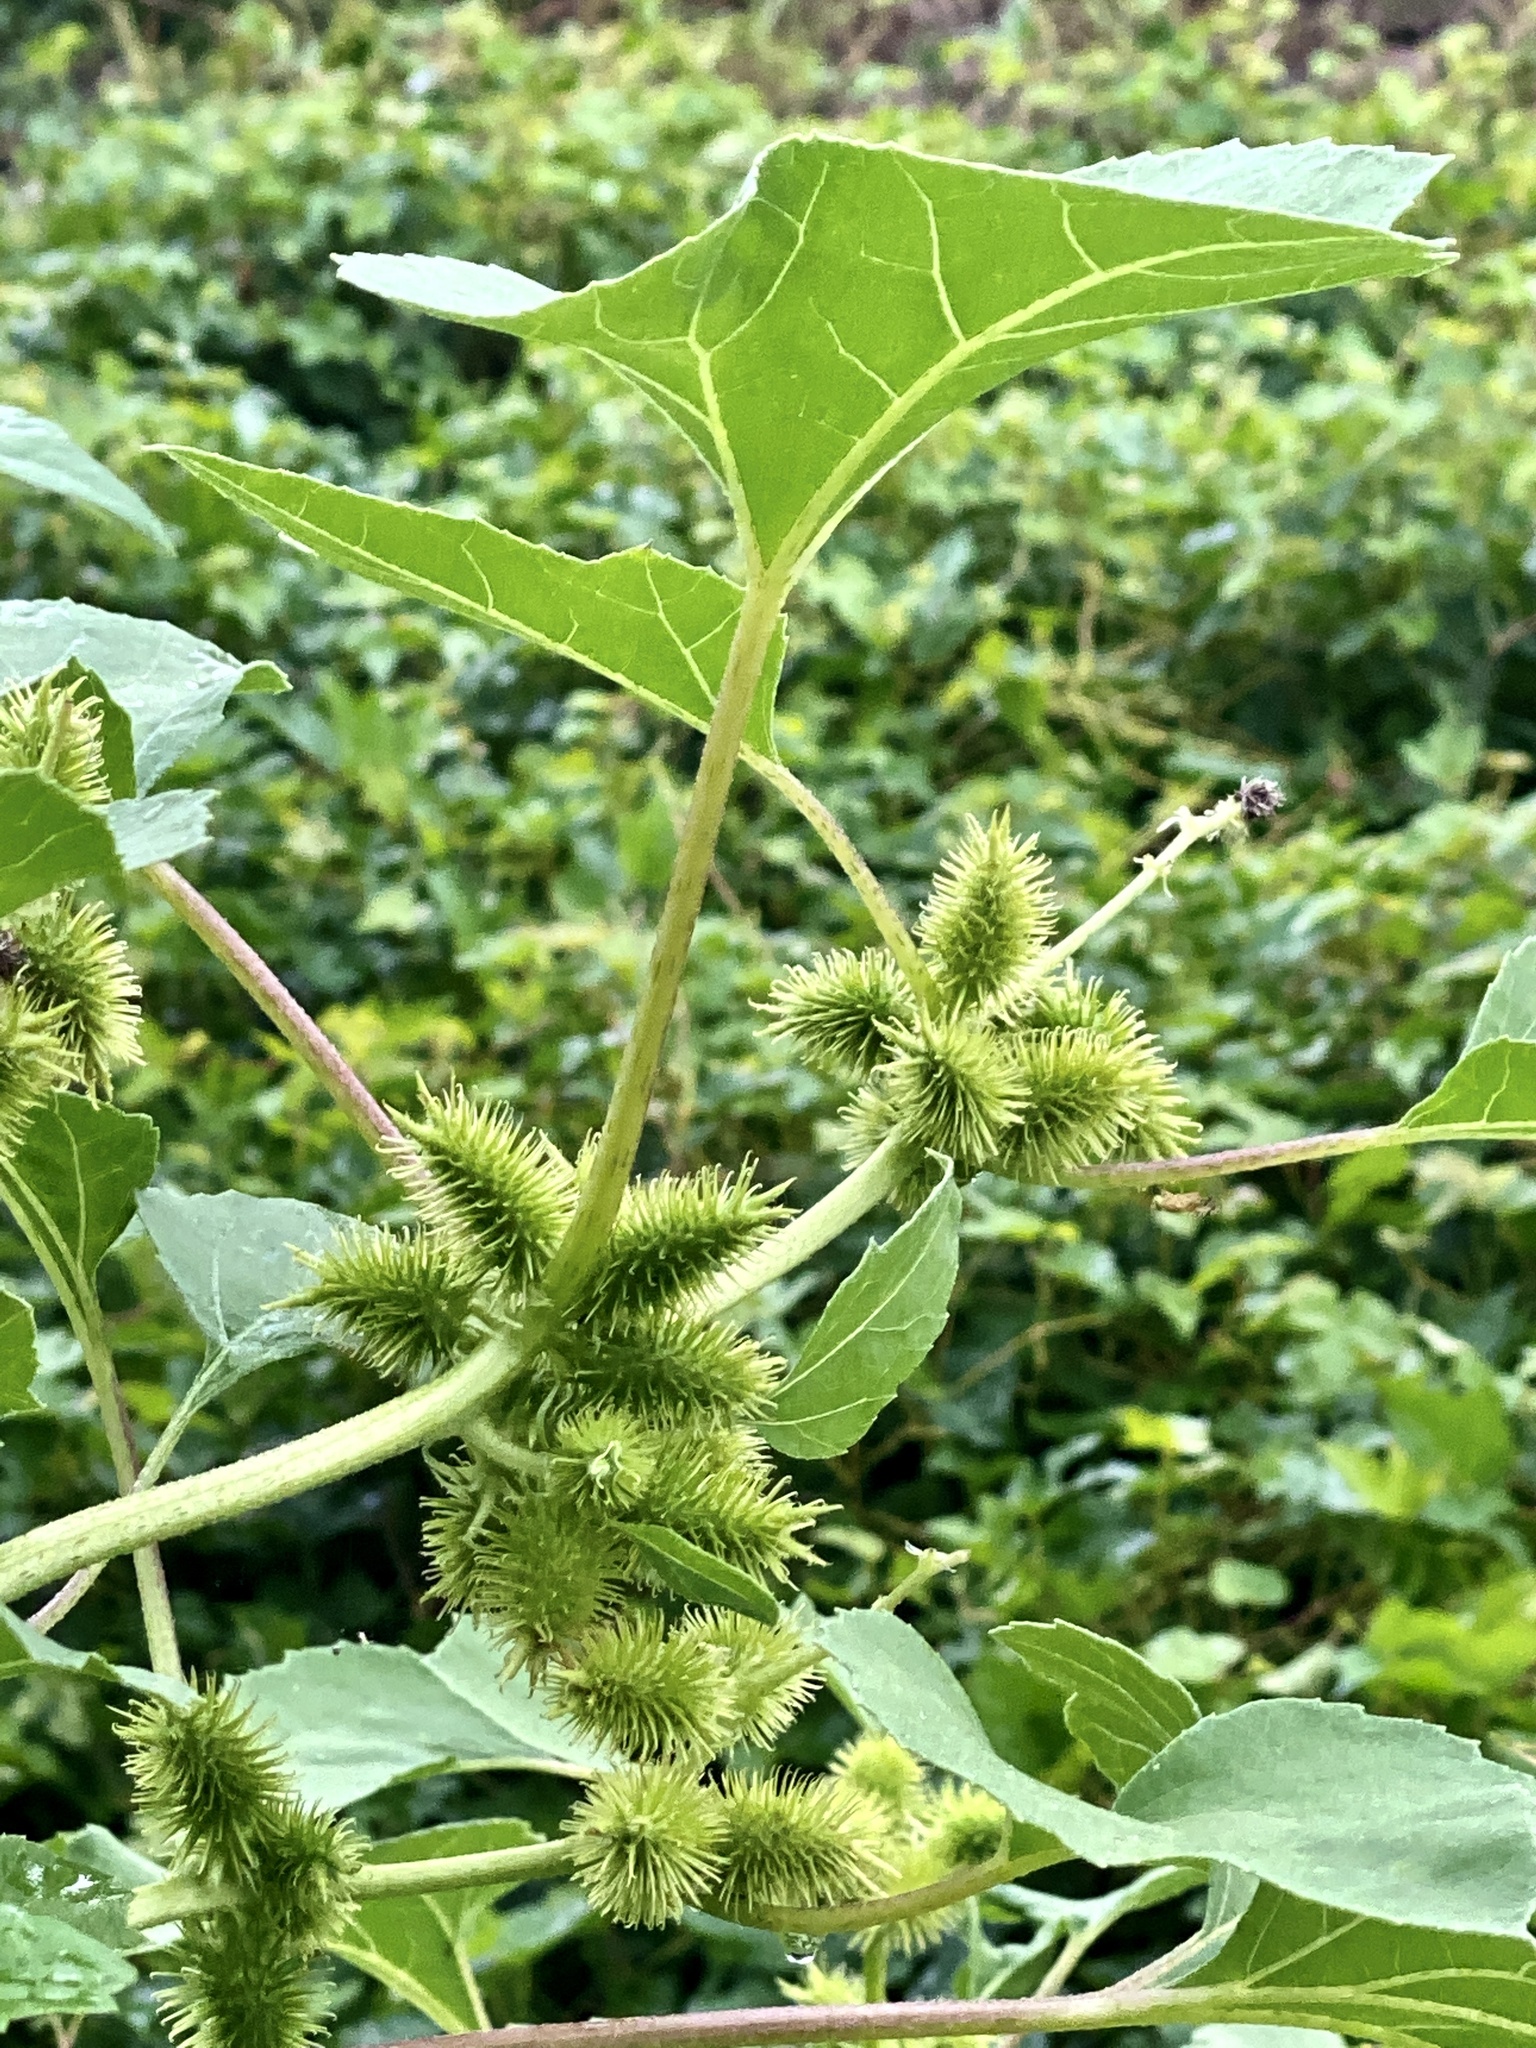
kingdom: Plantae
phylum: Tracheophyta
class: Magnoliopsida
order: Asterales
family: Asteraceae
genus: Xanthium
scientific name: Xanthium strumarium
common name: Rough cocklebur
